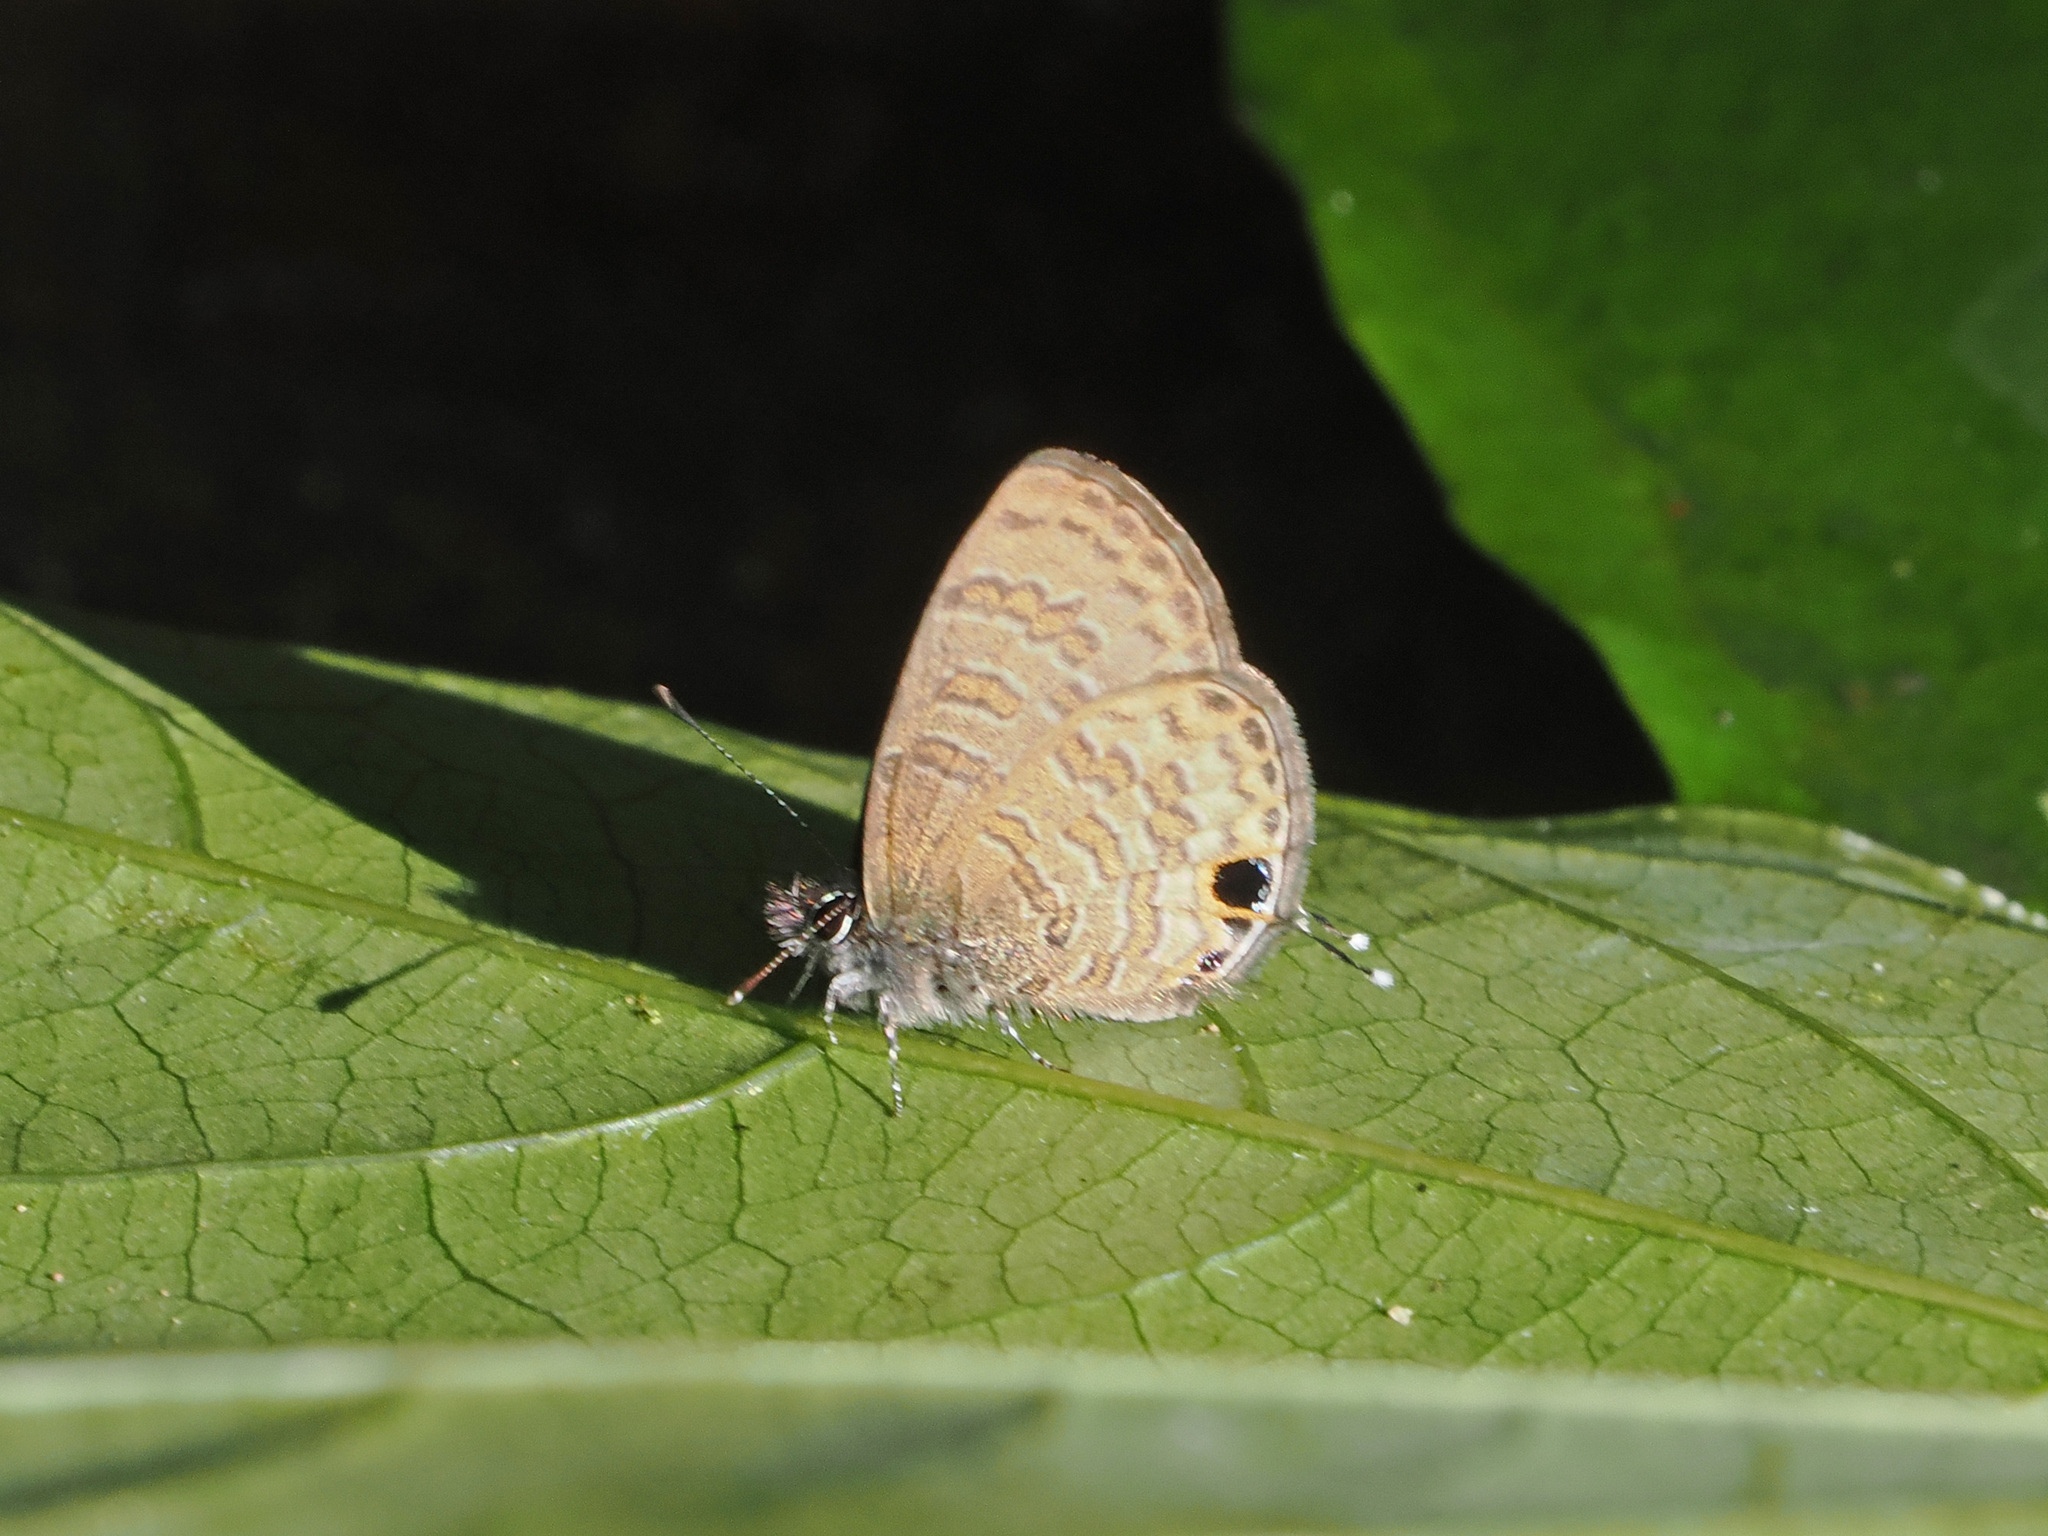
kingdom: Animalia
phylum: Arthropoda
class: Insecta
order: Lepidoptera
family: Lycaenidae
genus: Prosotas
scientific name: Prosotas nora
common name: Common line blue
